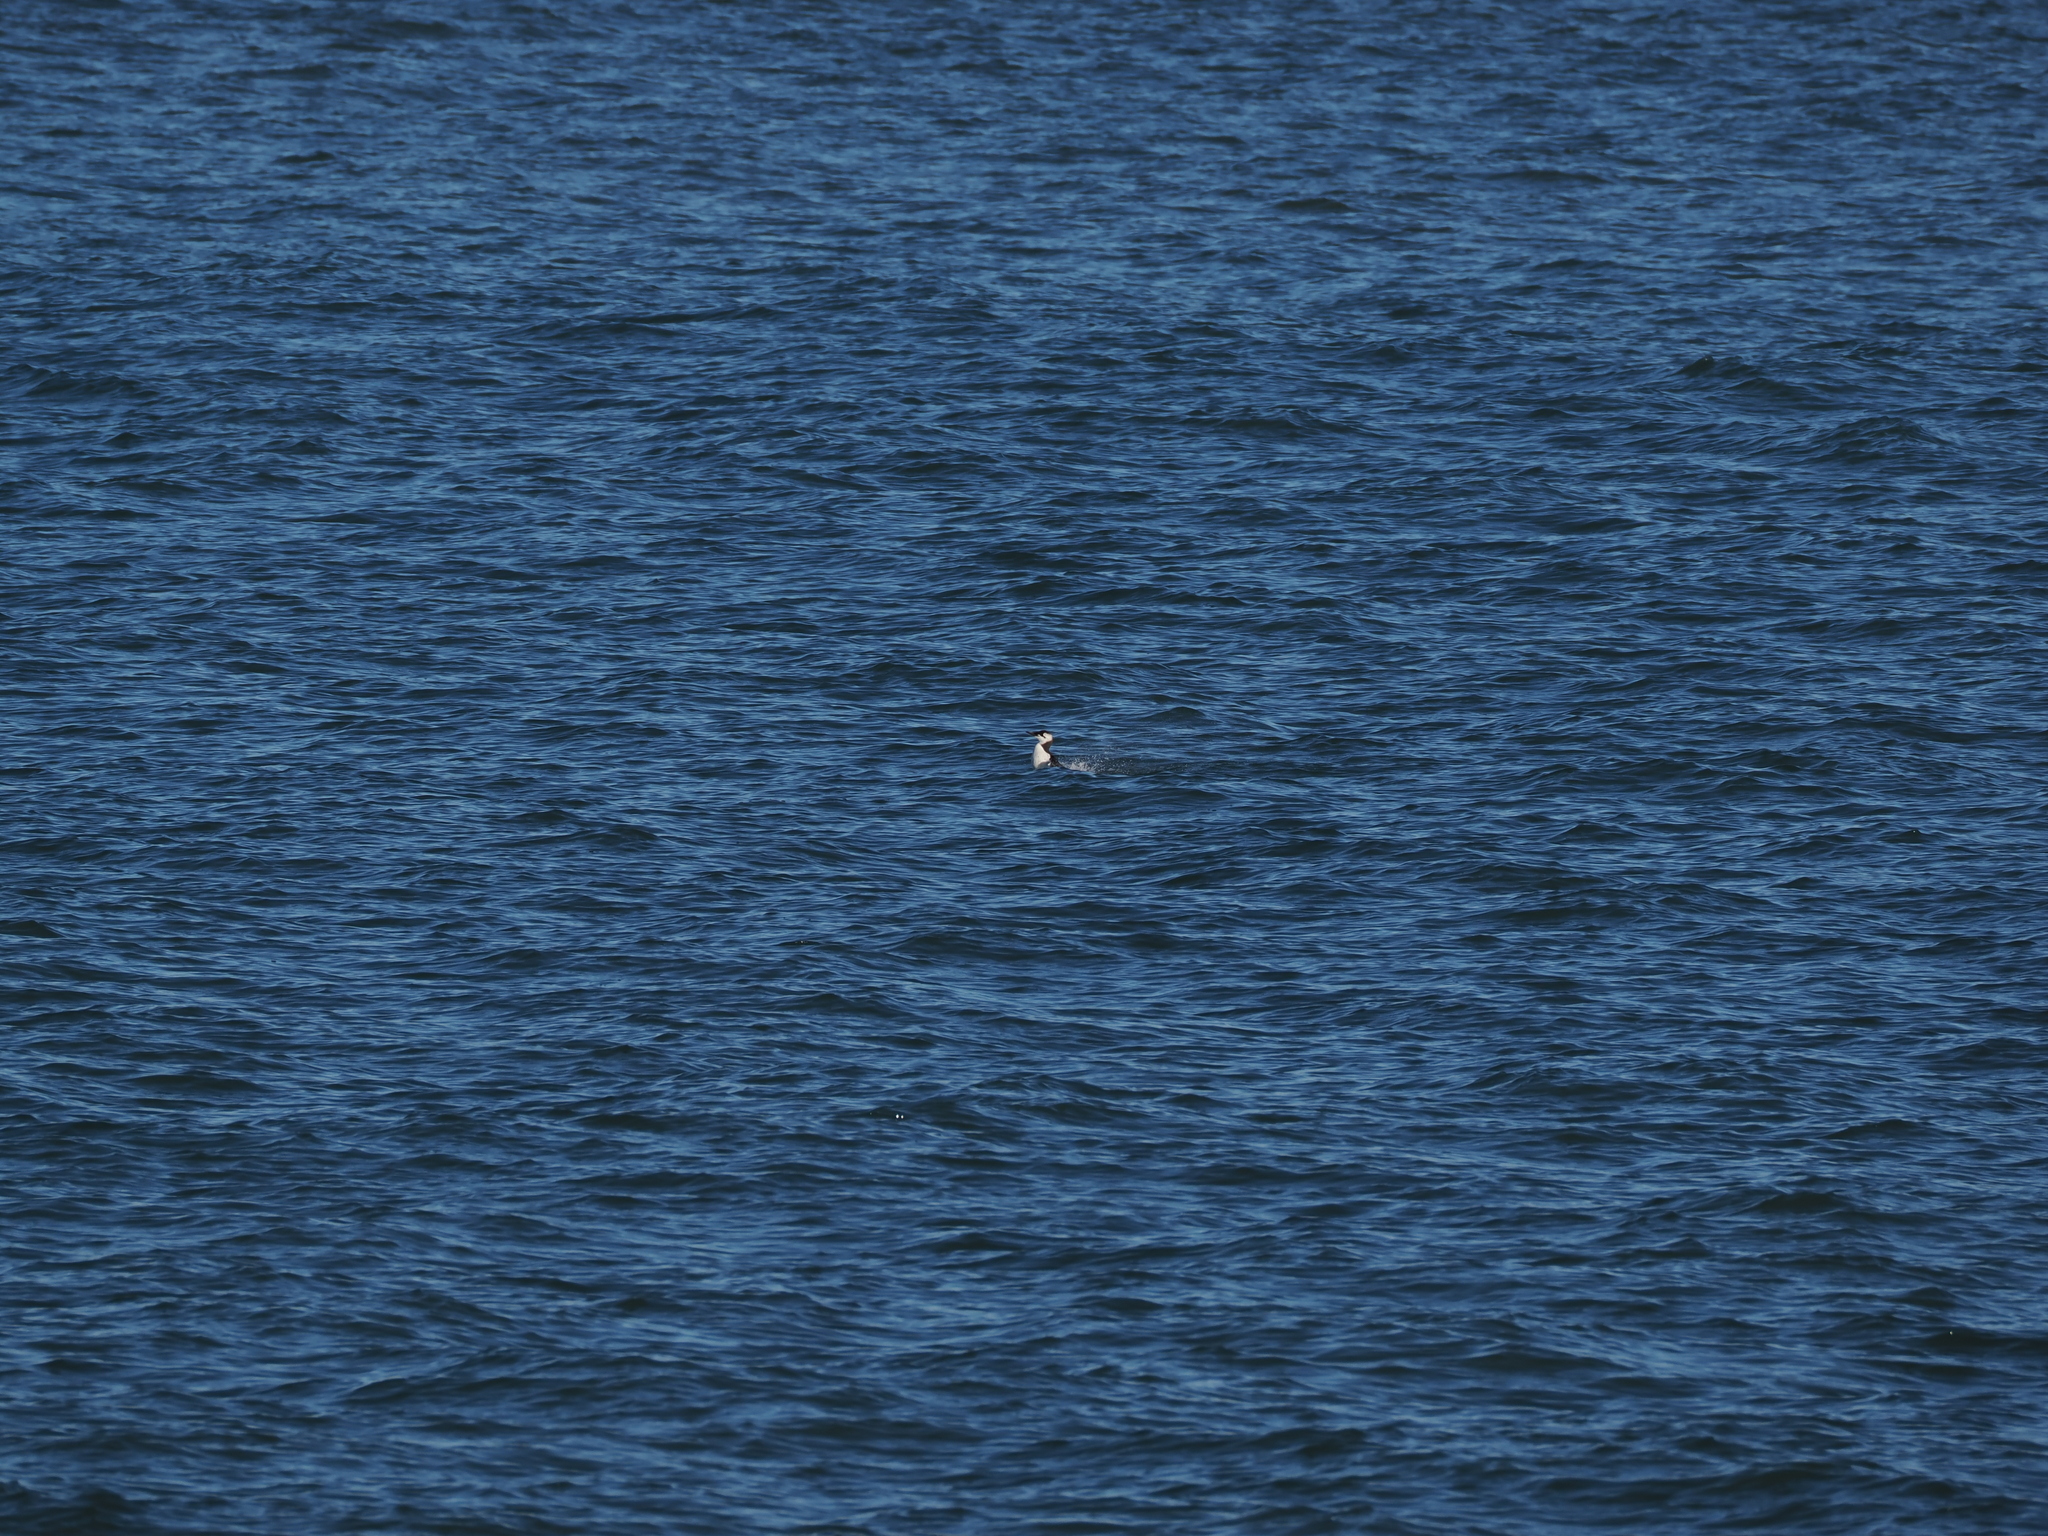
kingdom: Animalia
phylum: Chordata
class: Aves
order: Charadriiformes
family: Alcidae
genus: Uria
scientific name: Uria aalge
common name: Common murre
